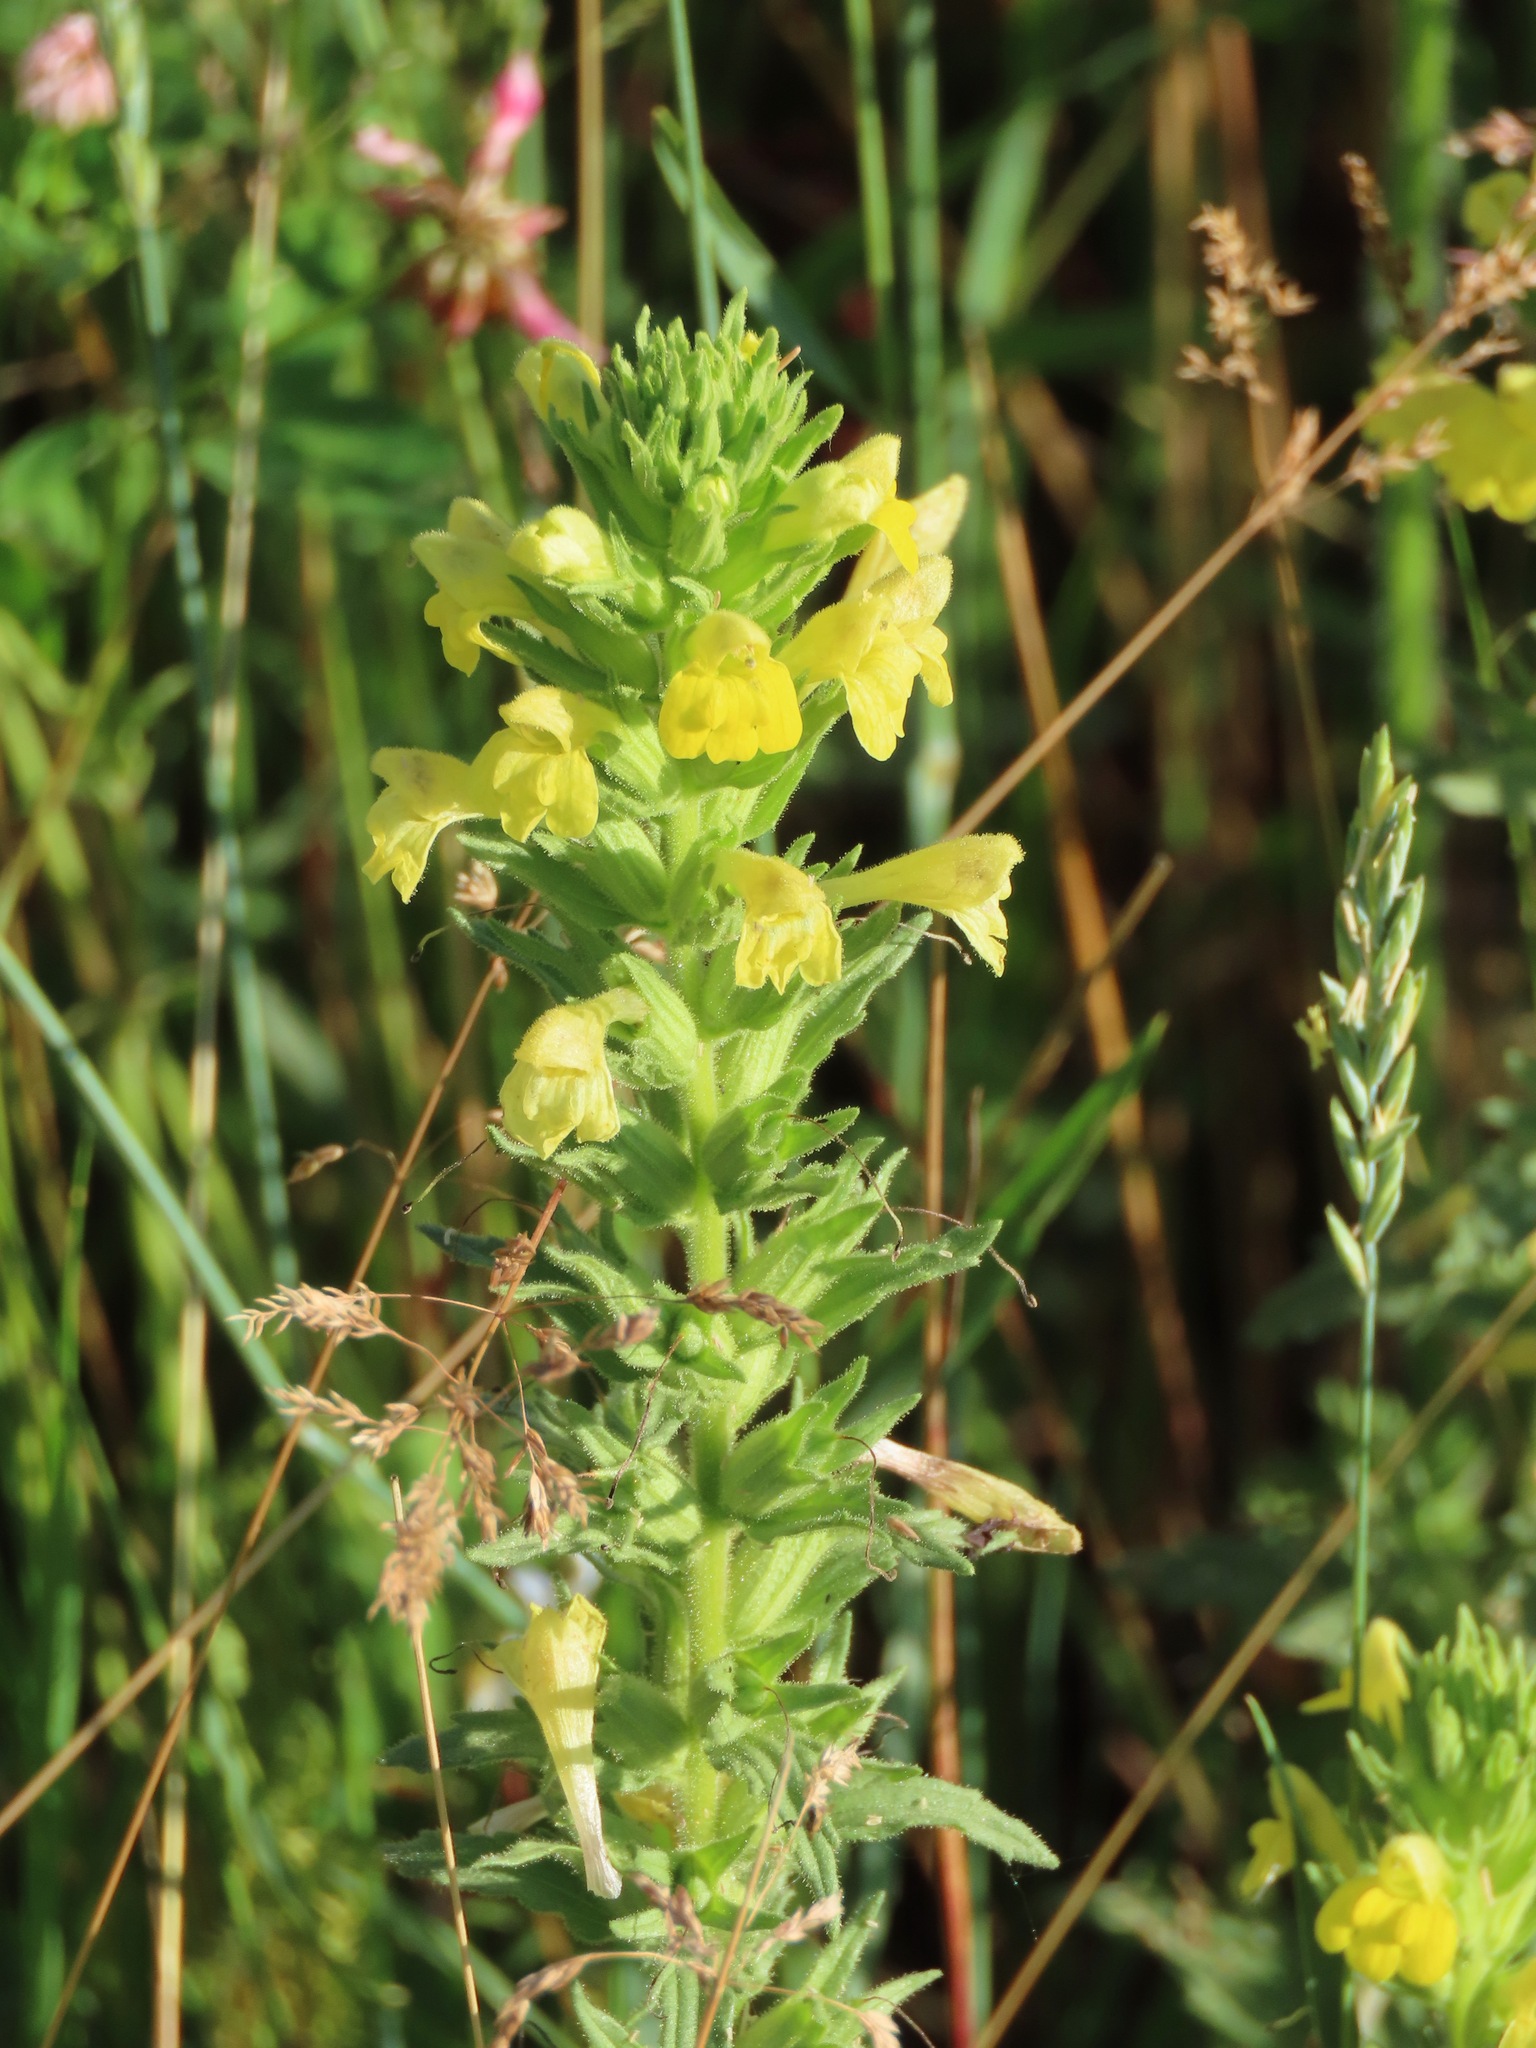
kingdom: Plantae
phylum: Tracheophyta
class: Magnoliopsida
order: Lamiales
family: Orobanchaceae
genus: Bellardia
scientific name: Bellardia viscosa
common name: Sticky parentucellia
